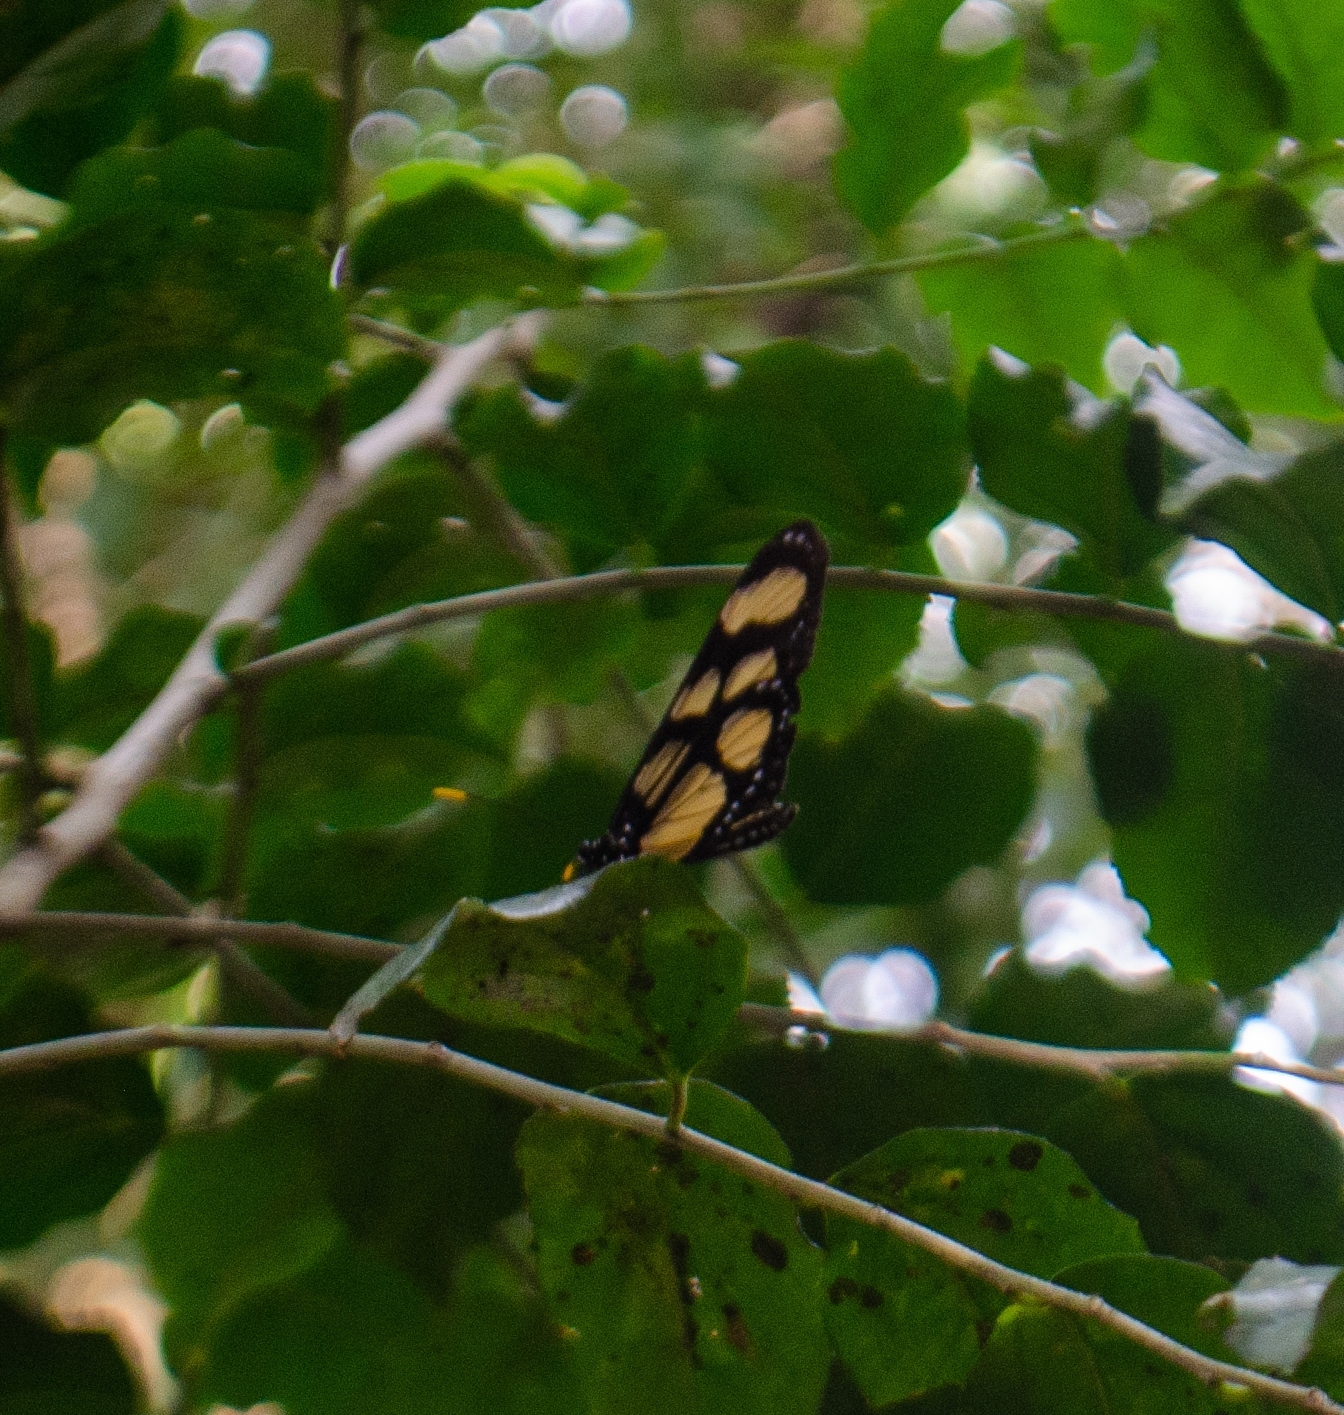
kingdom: Animalia
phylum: Arthropoda
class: Insecta
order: Lepidoptera
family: Nymphalidae
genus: Thyridia
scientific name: Thyridia psidii
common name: Melantho tigerwing
